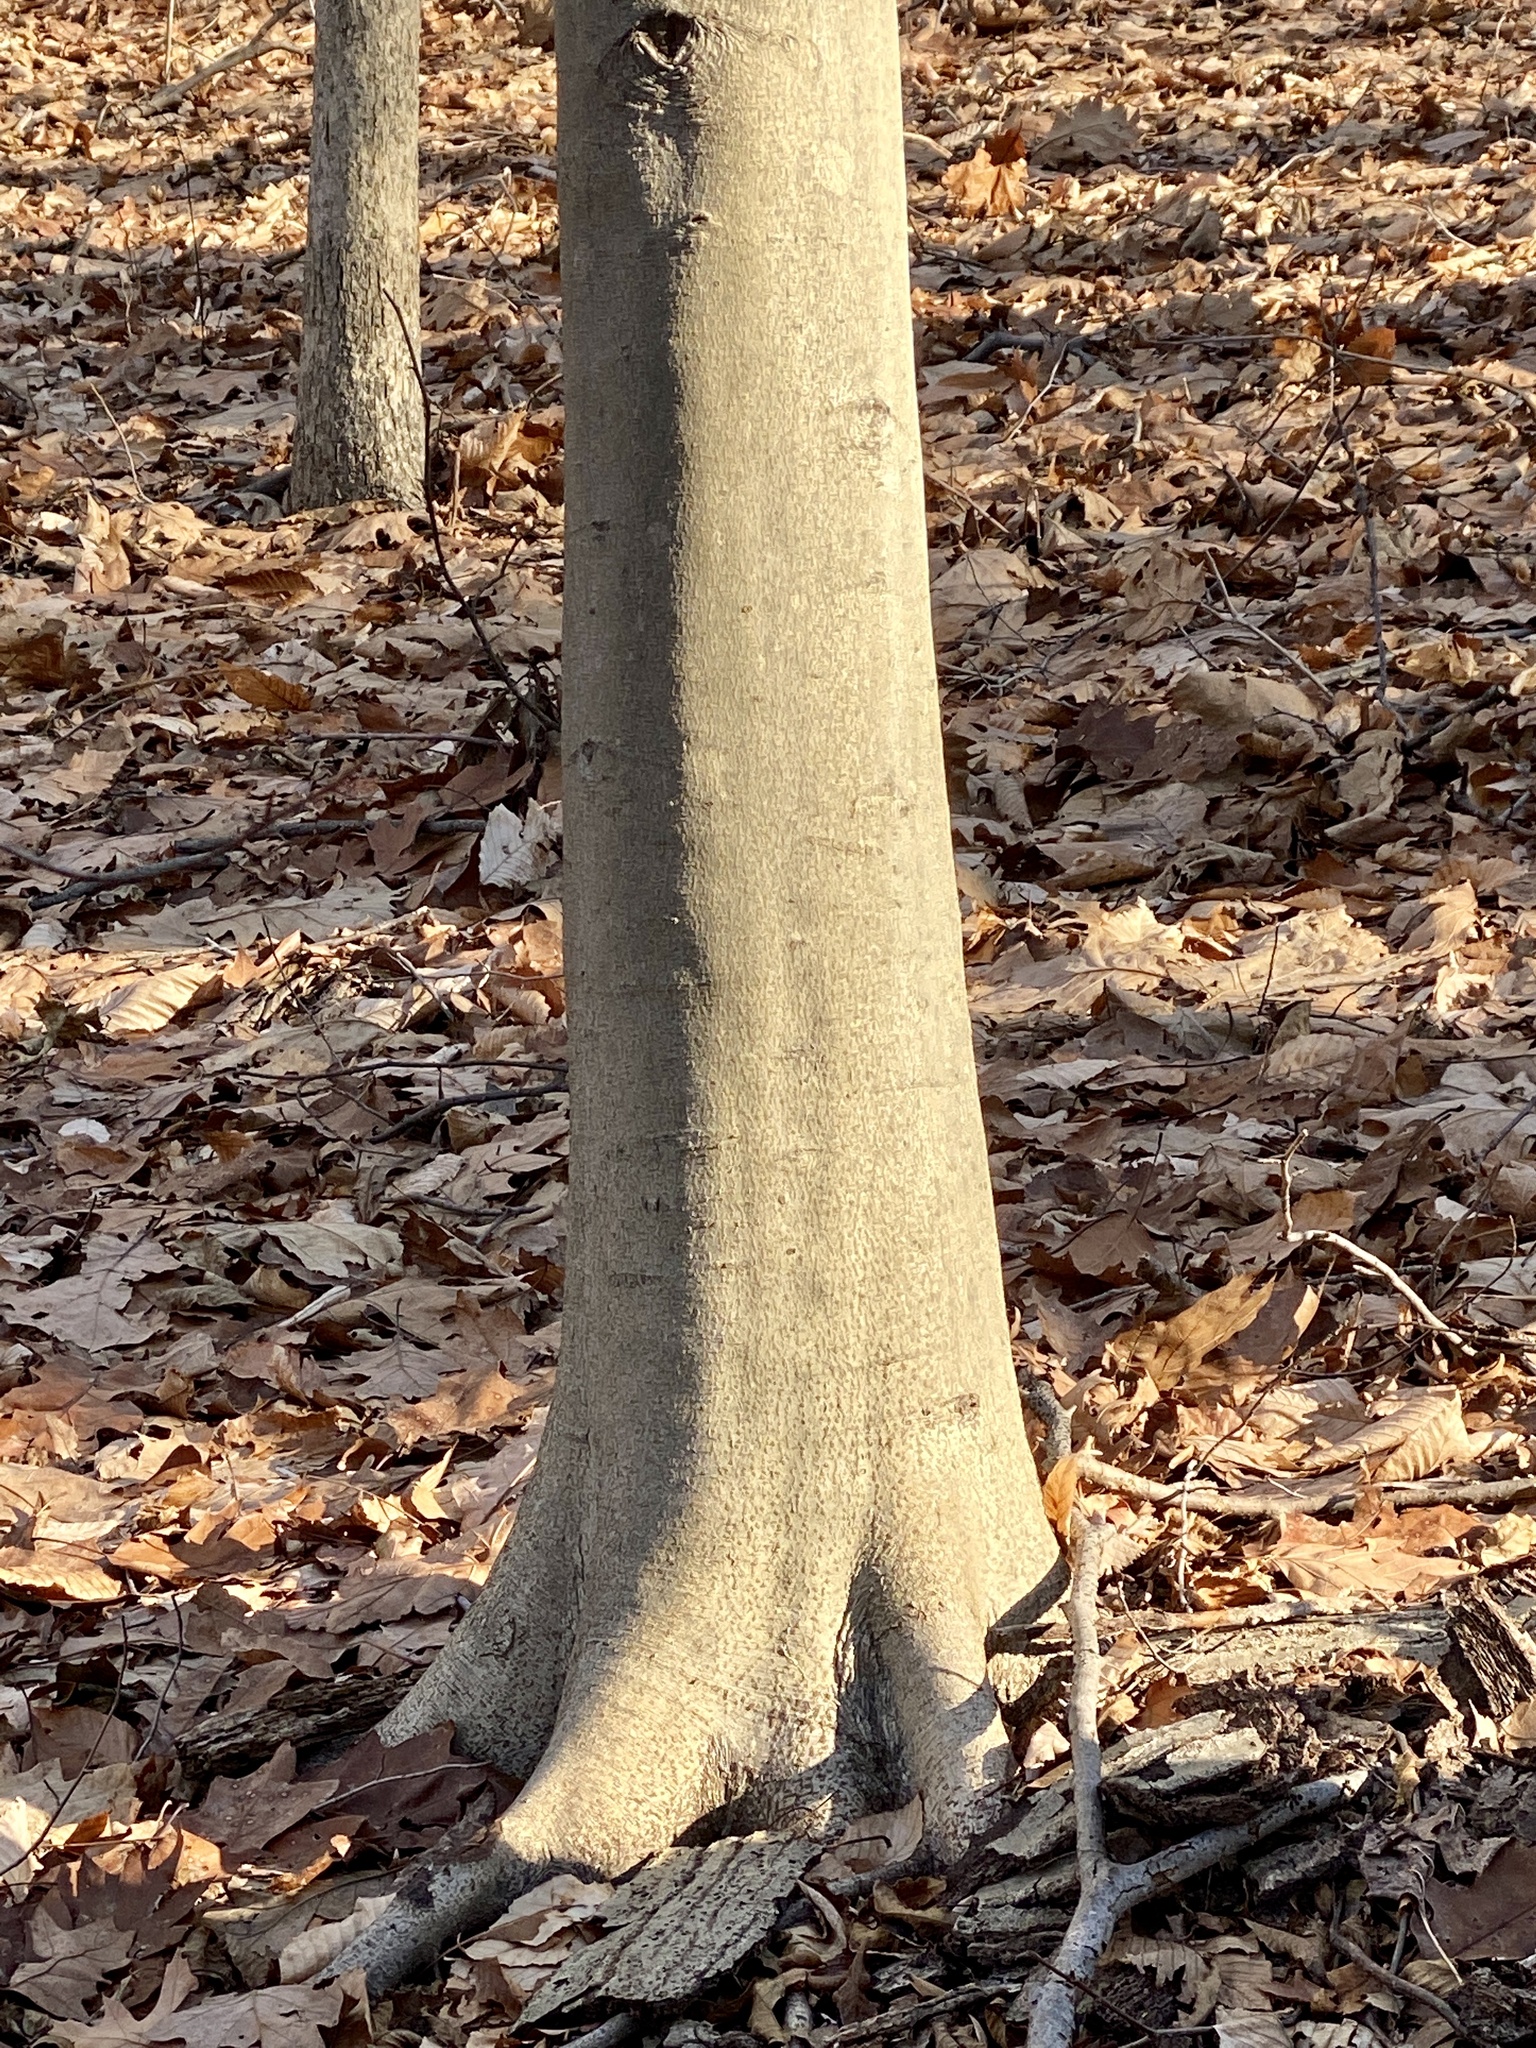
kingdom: Plantae
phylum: Tracheophyta
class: Magnoliopsida
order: Fagales
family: Fagaceae
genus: Fagus
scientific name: Fagus grandifolia
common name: American beech
